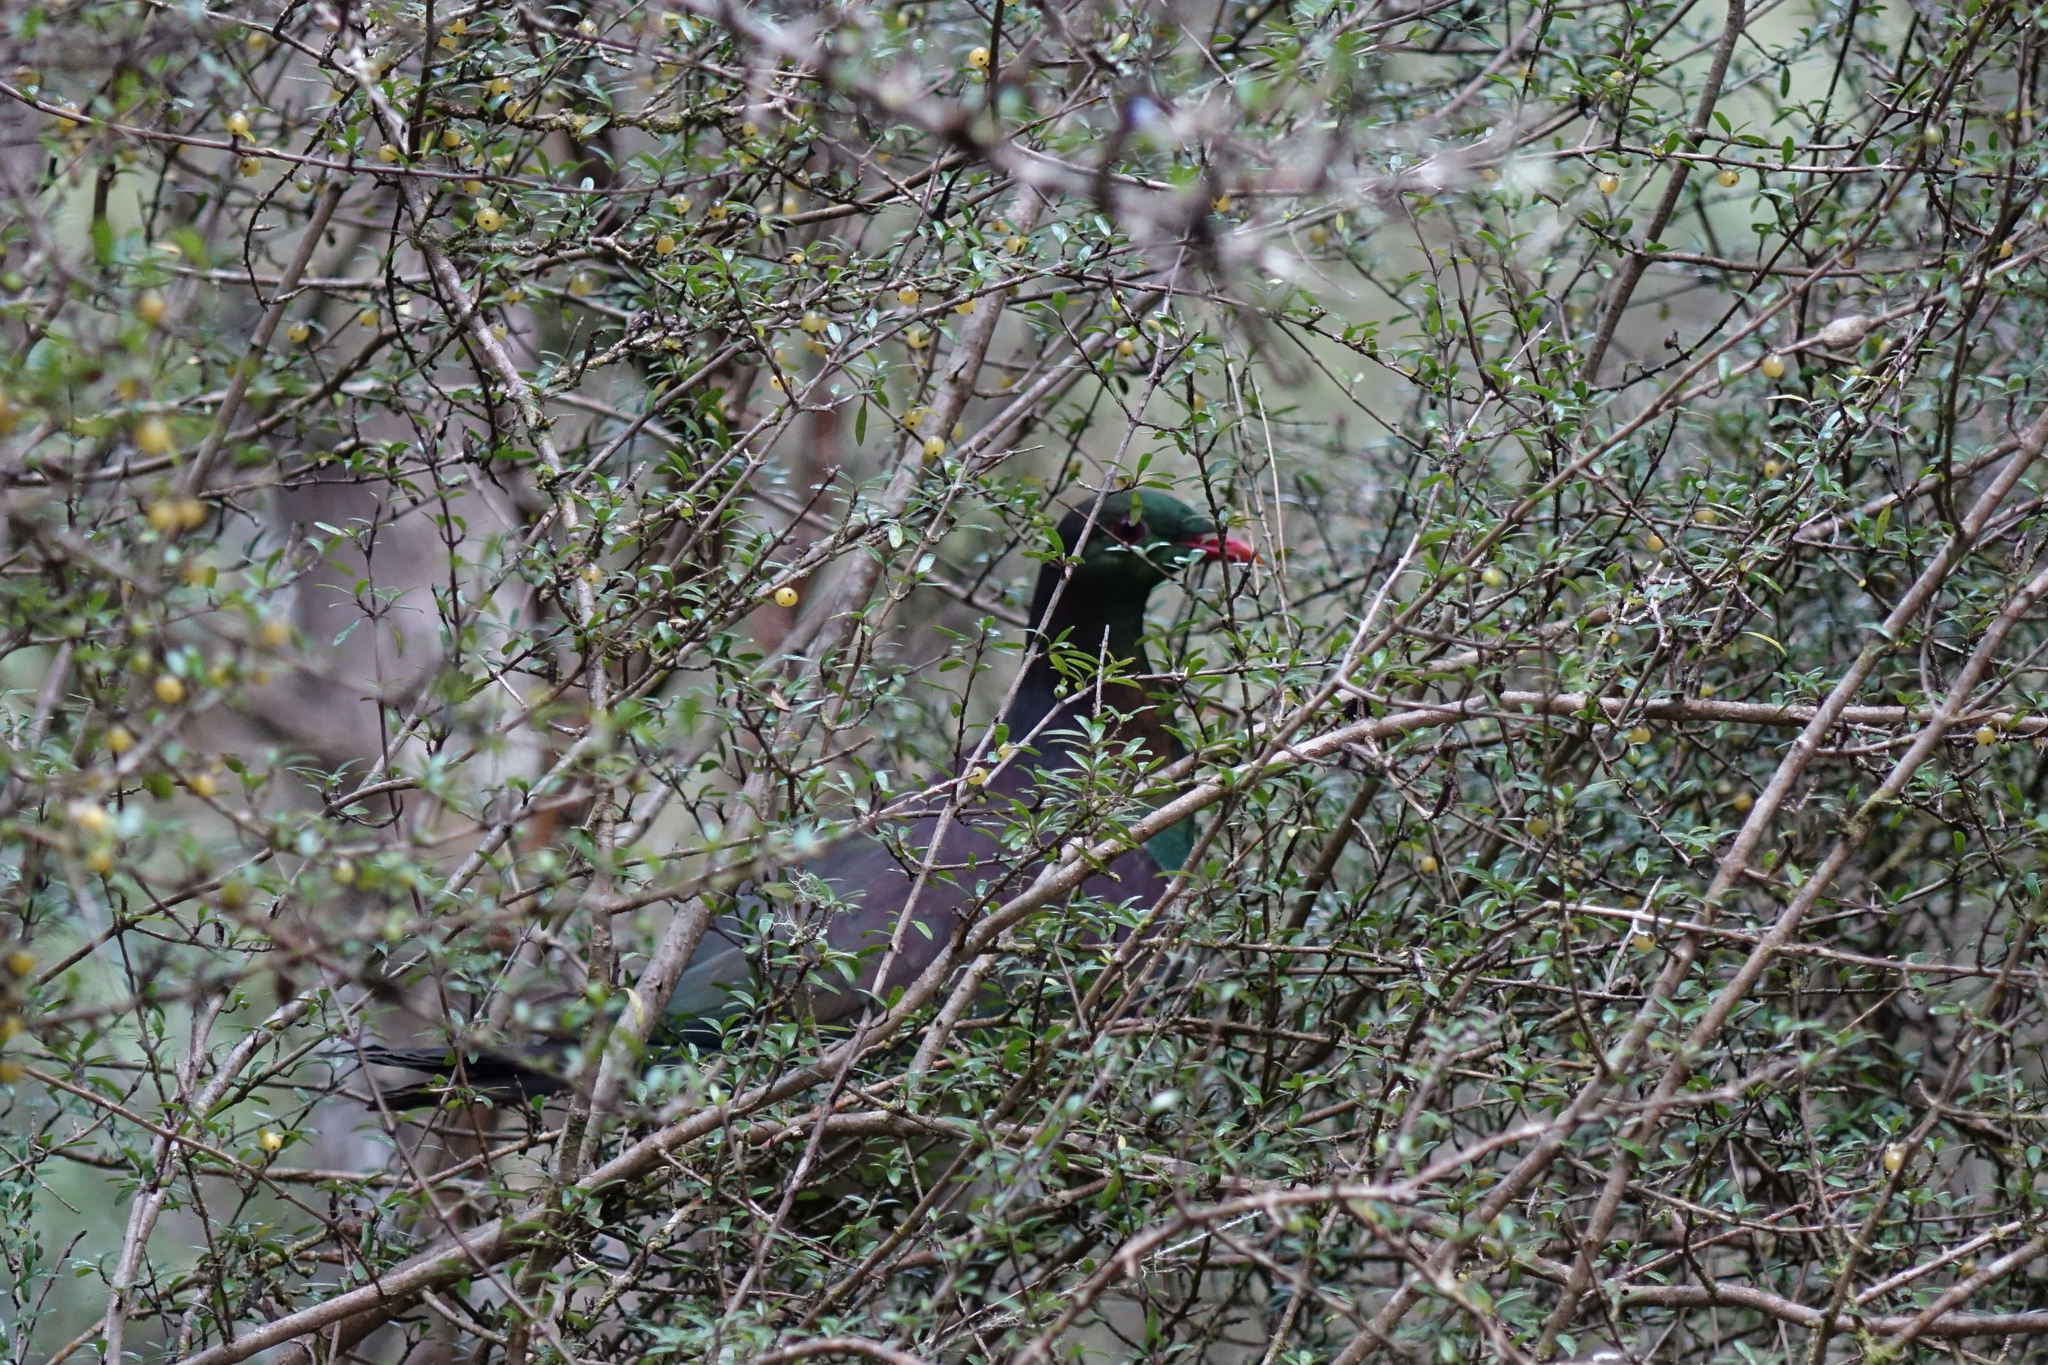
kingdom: Animalia
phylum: Chordata
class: Aves
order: Columbiformes
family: Columbidae
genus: Hemiphaga
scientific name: Hemiphaga novaeseelandiae
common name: New zealand pigeon
